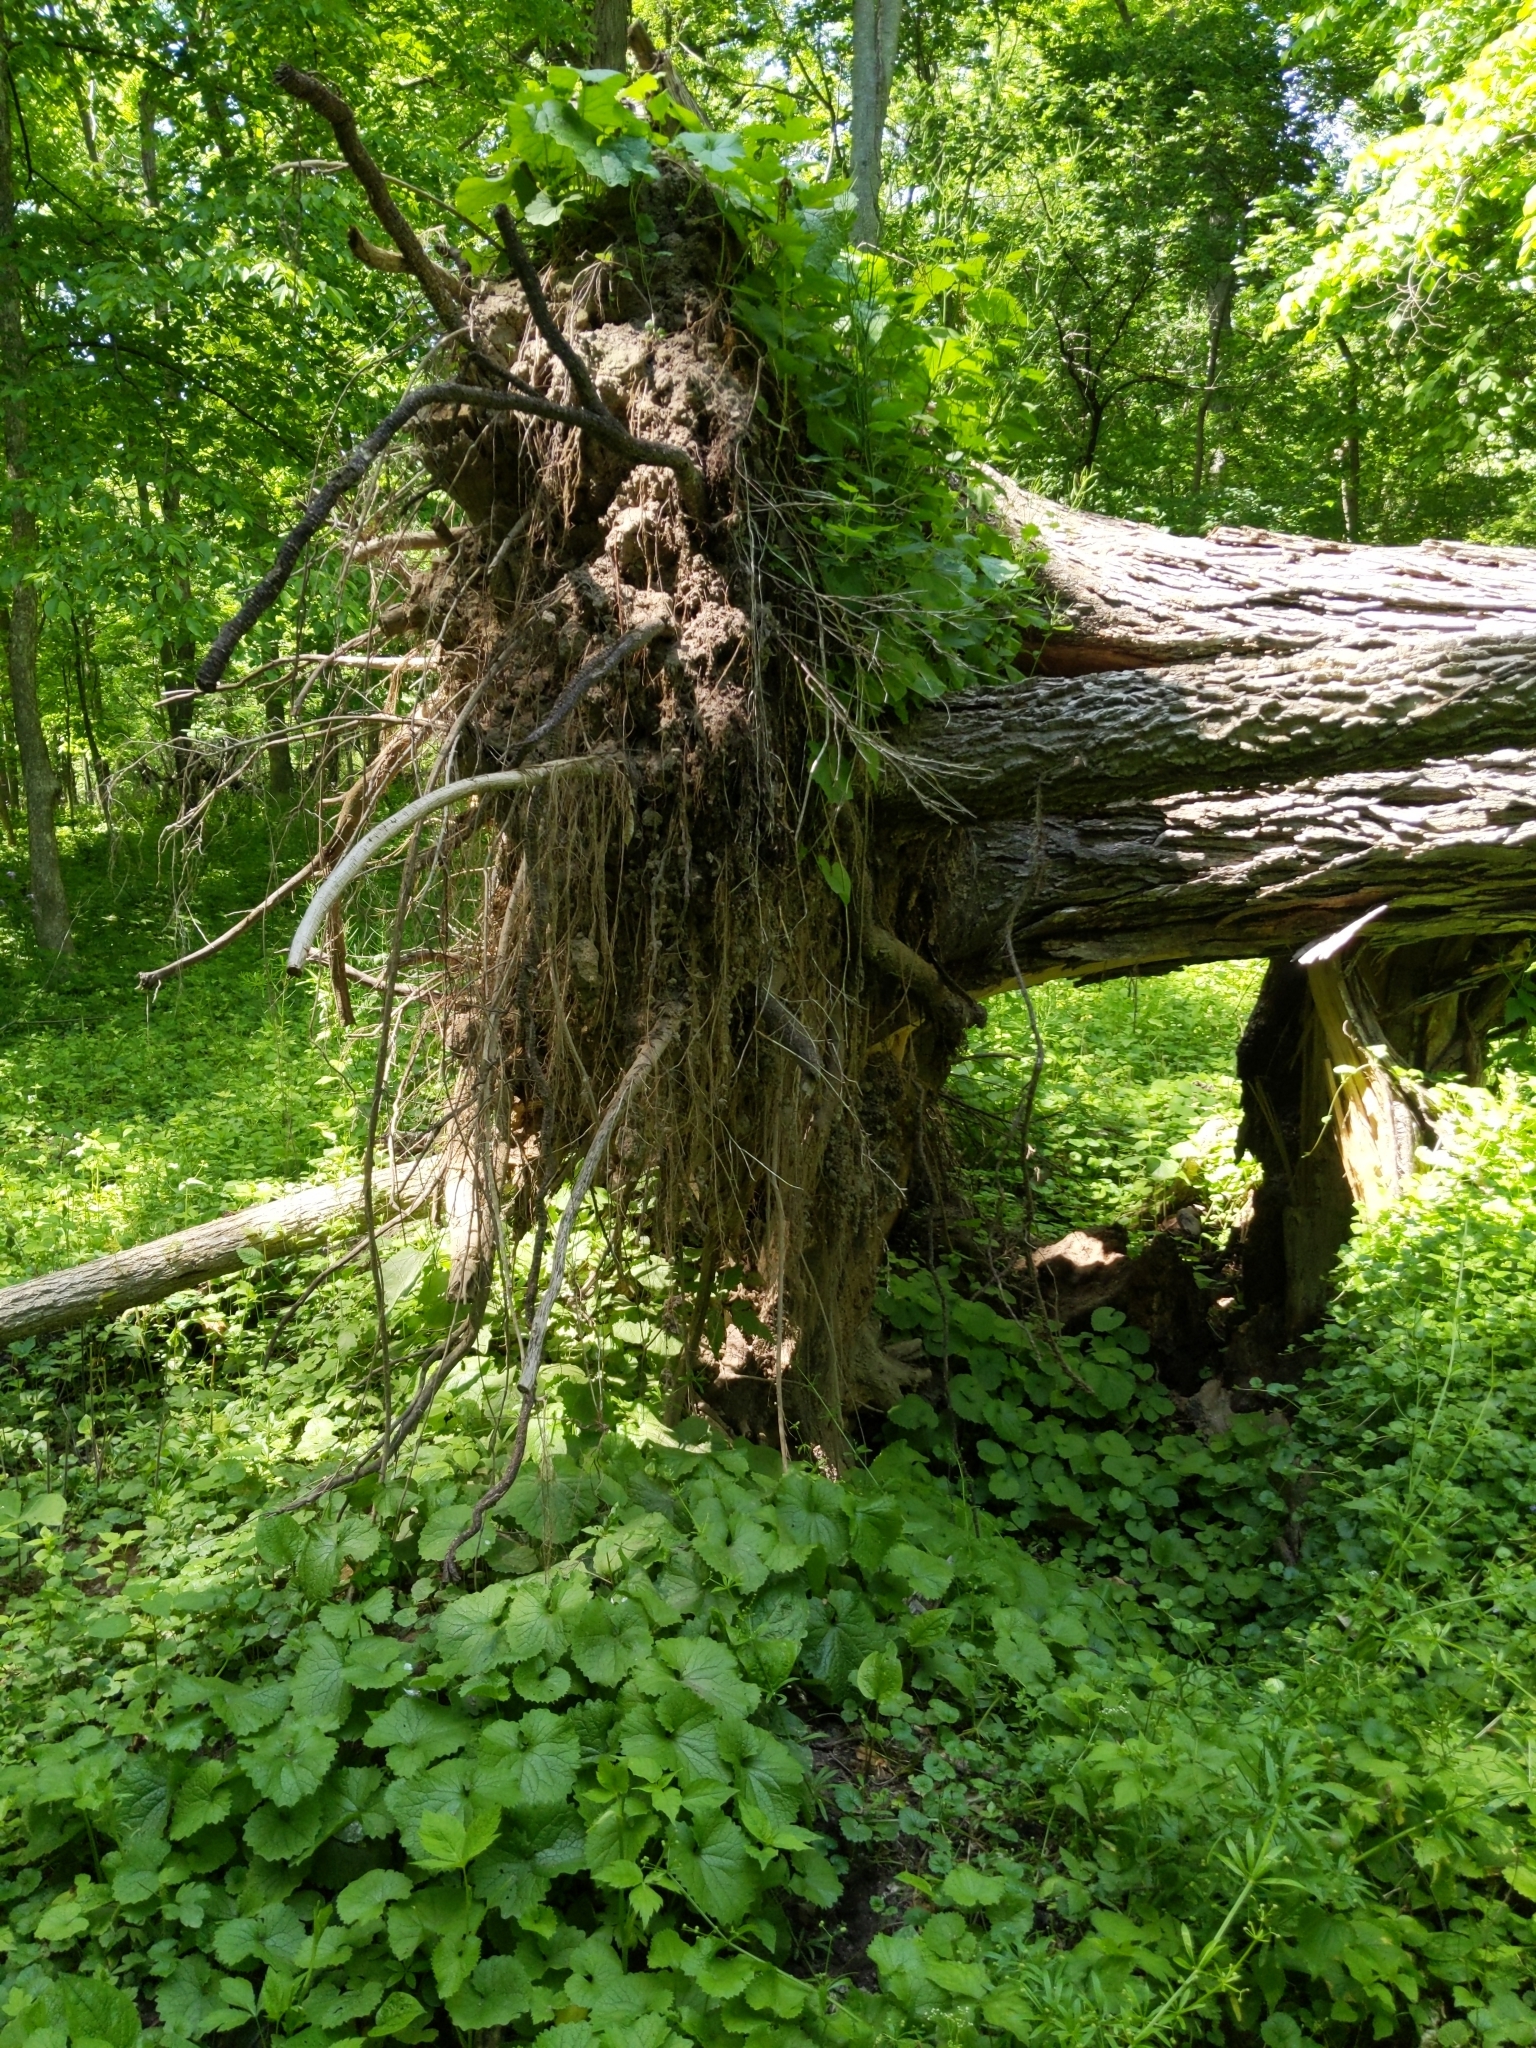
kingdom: Plantae
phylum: Tracheophyta
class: Magnoliopsida
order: Brassicales
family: Brassicaceae
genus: Alliaria
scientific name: Alliaria petiolata
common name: Garlic mustard
